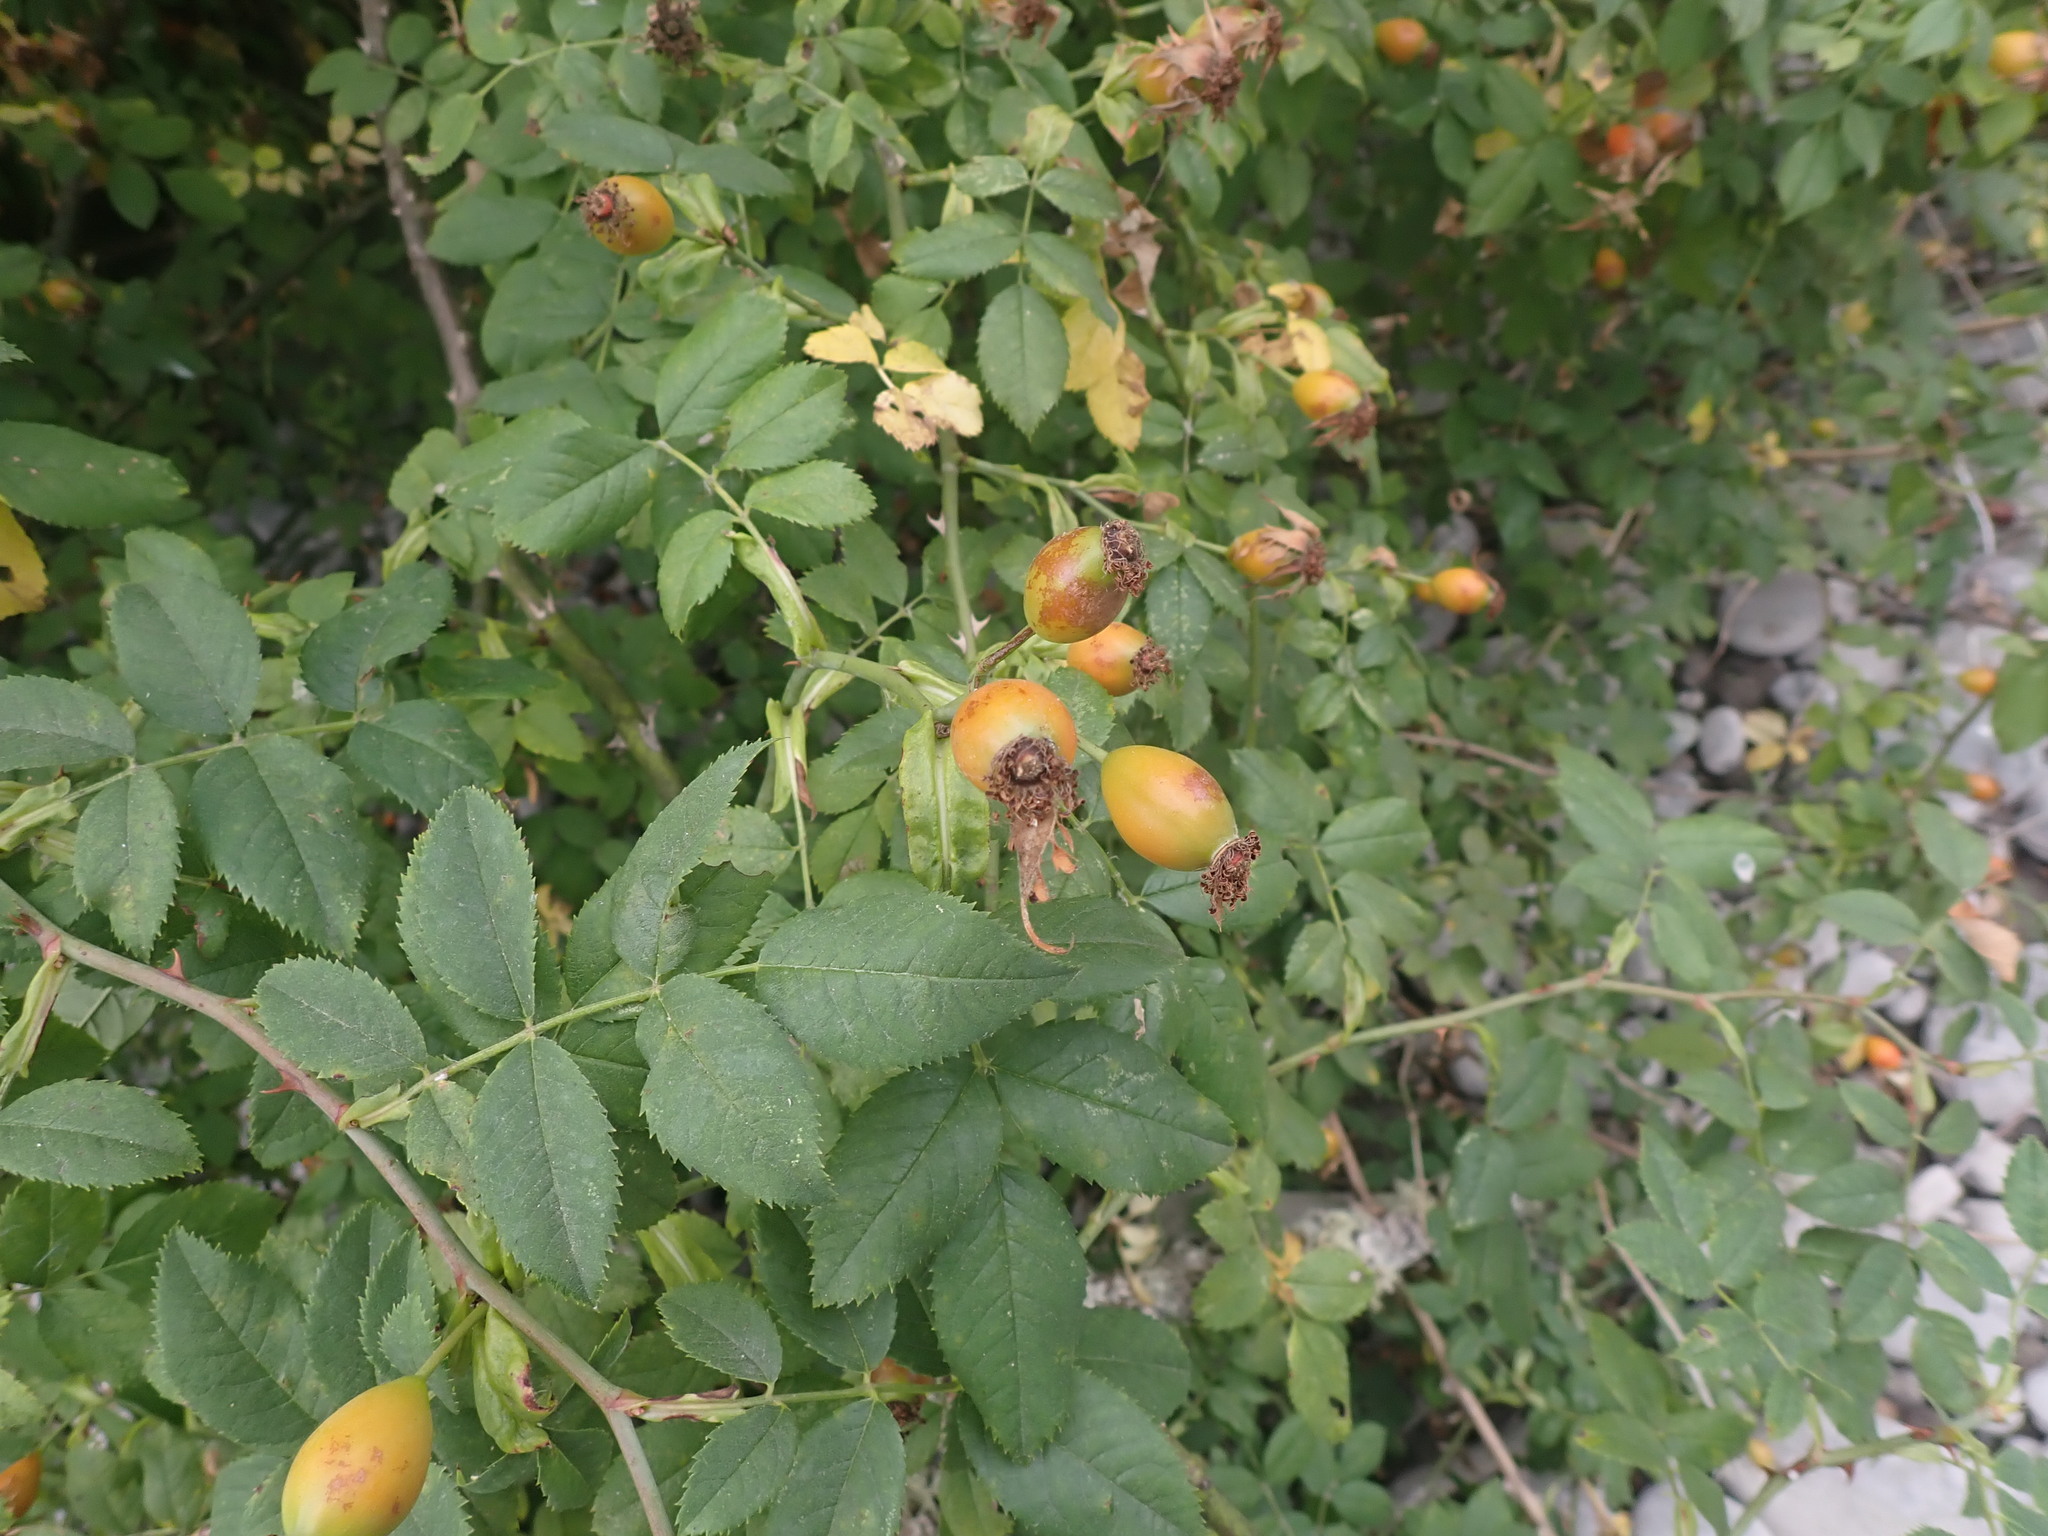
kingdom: Plantae
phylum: Tracheophyta
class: Magnoliopsida
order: Rosales
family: Rosaceae
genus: Rosa
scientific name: Rosa canina
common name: Dog rose
